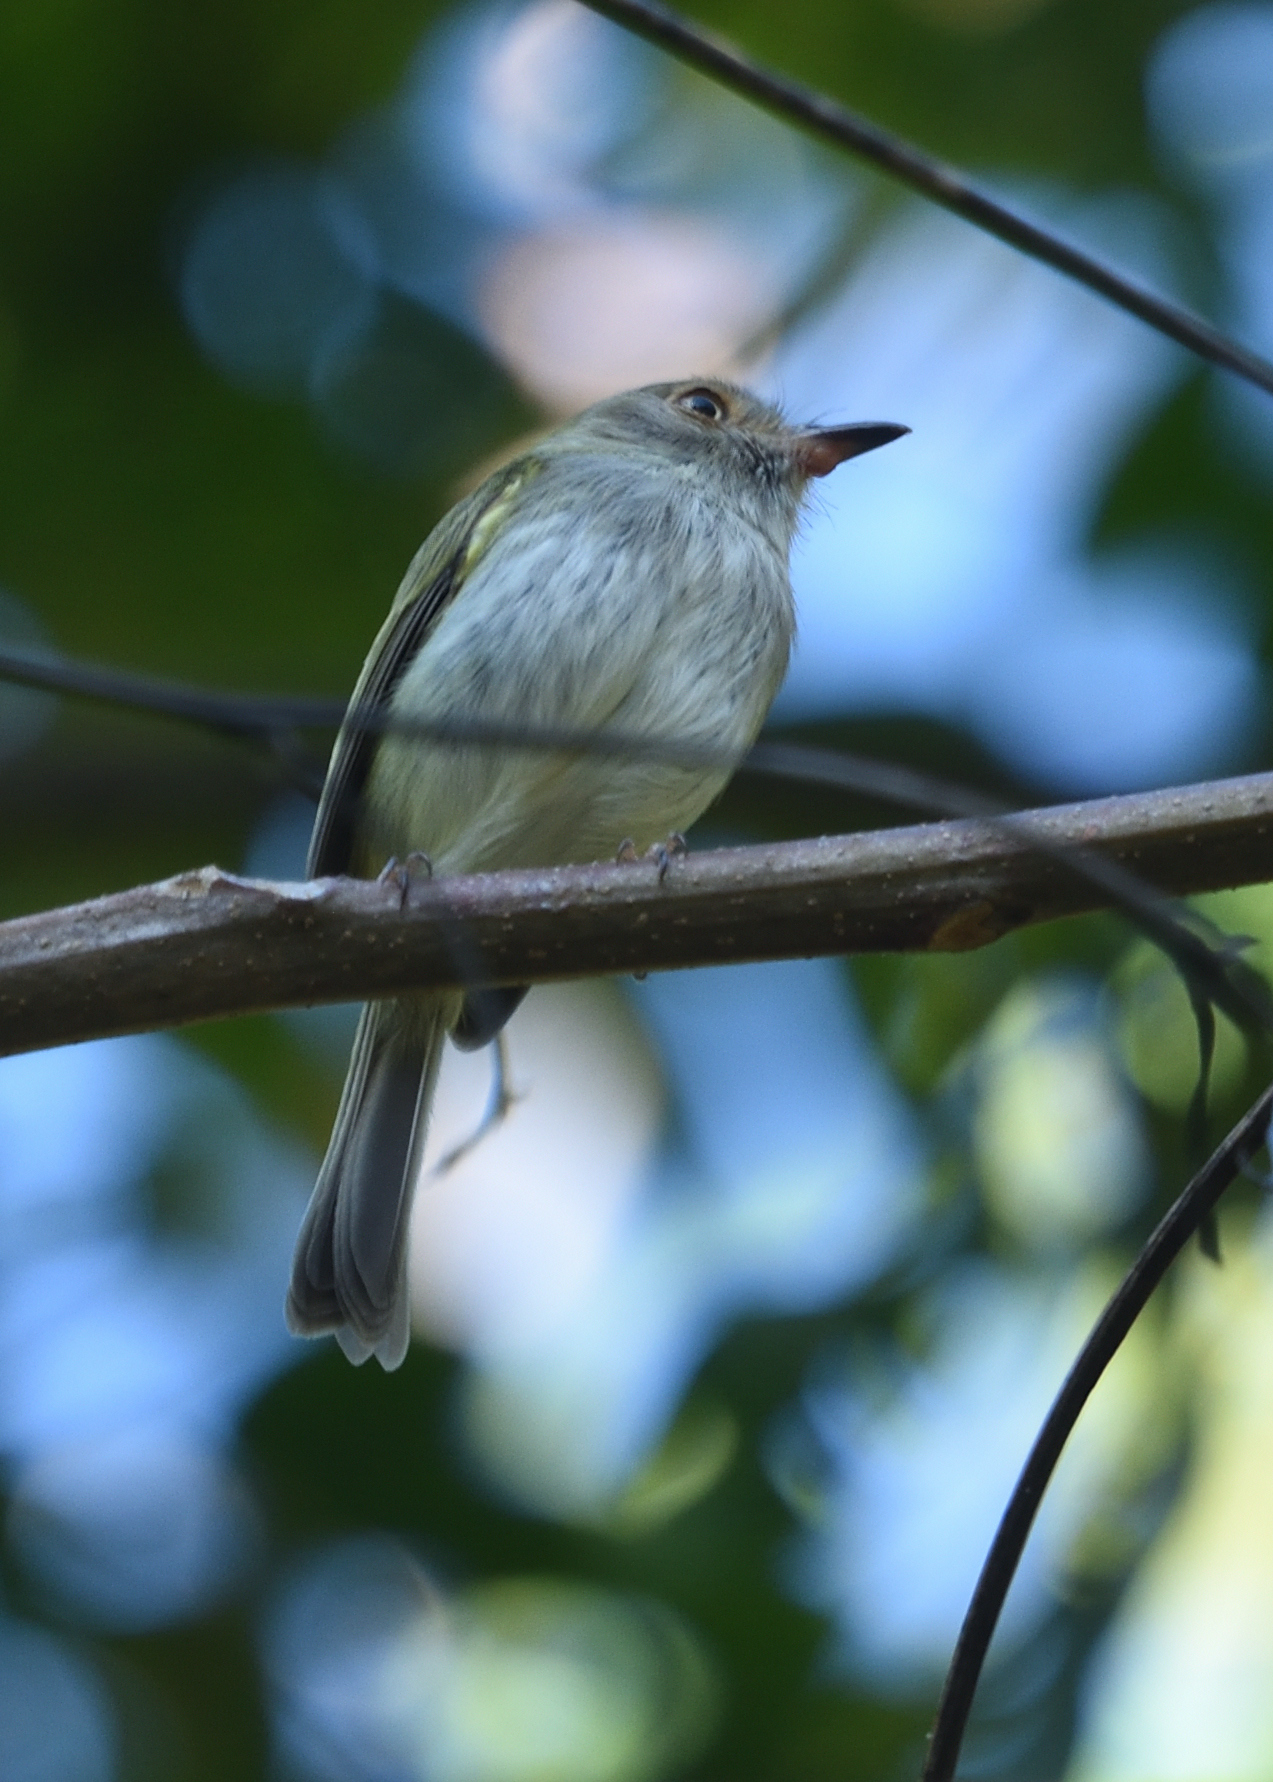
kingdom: Animalia
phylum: Chordata
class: Aves
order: Passeriformes
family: Tyrannidae
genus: Atalotriccus
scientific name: Atalotriccus pilaris
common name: Pale-eyed pygmy-tyrant
